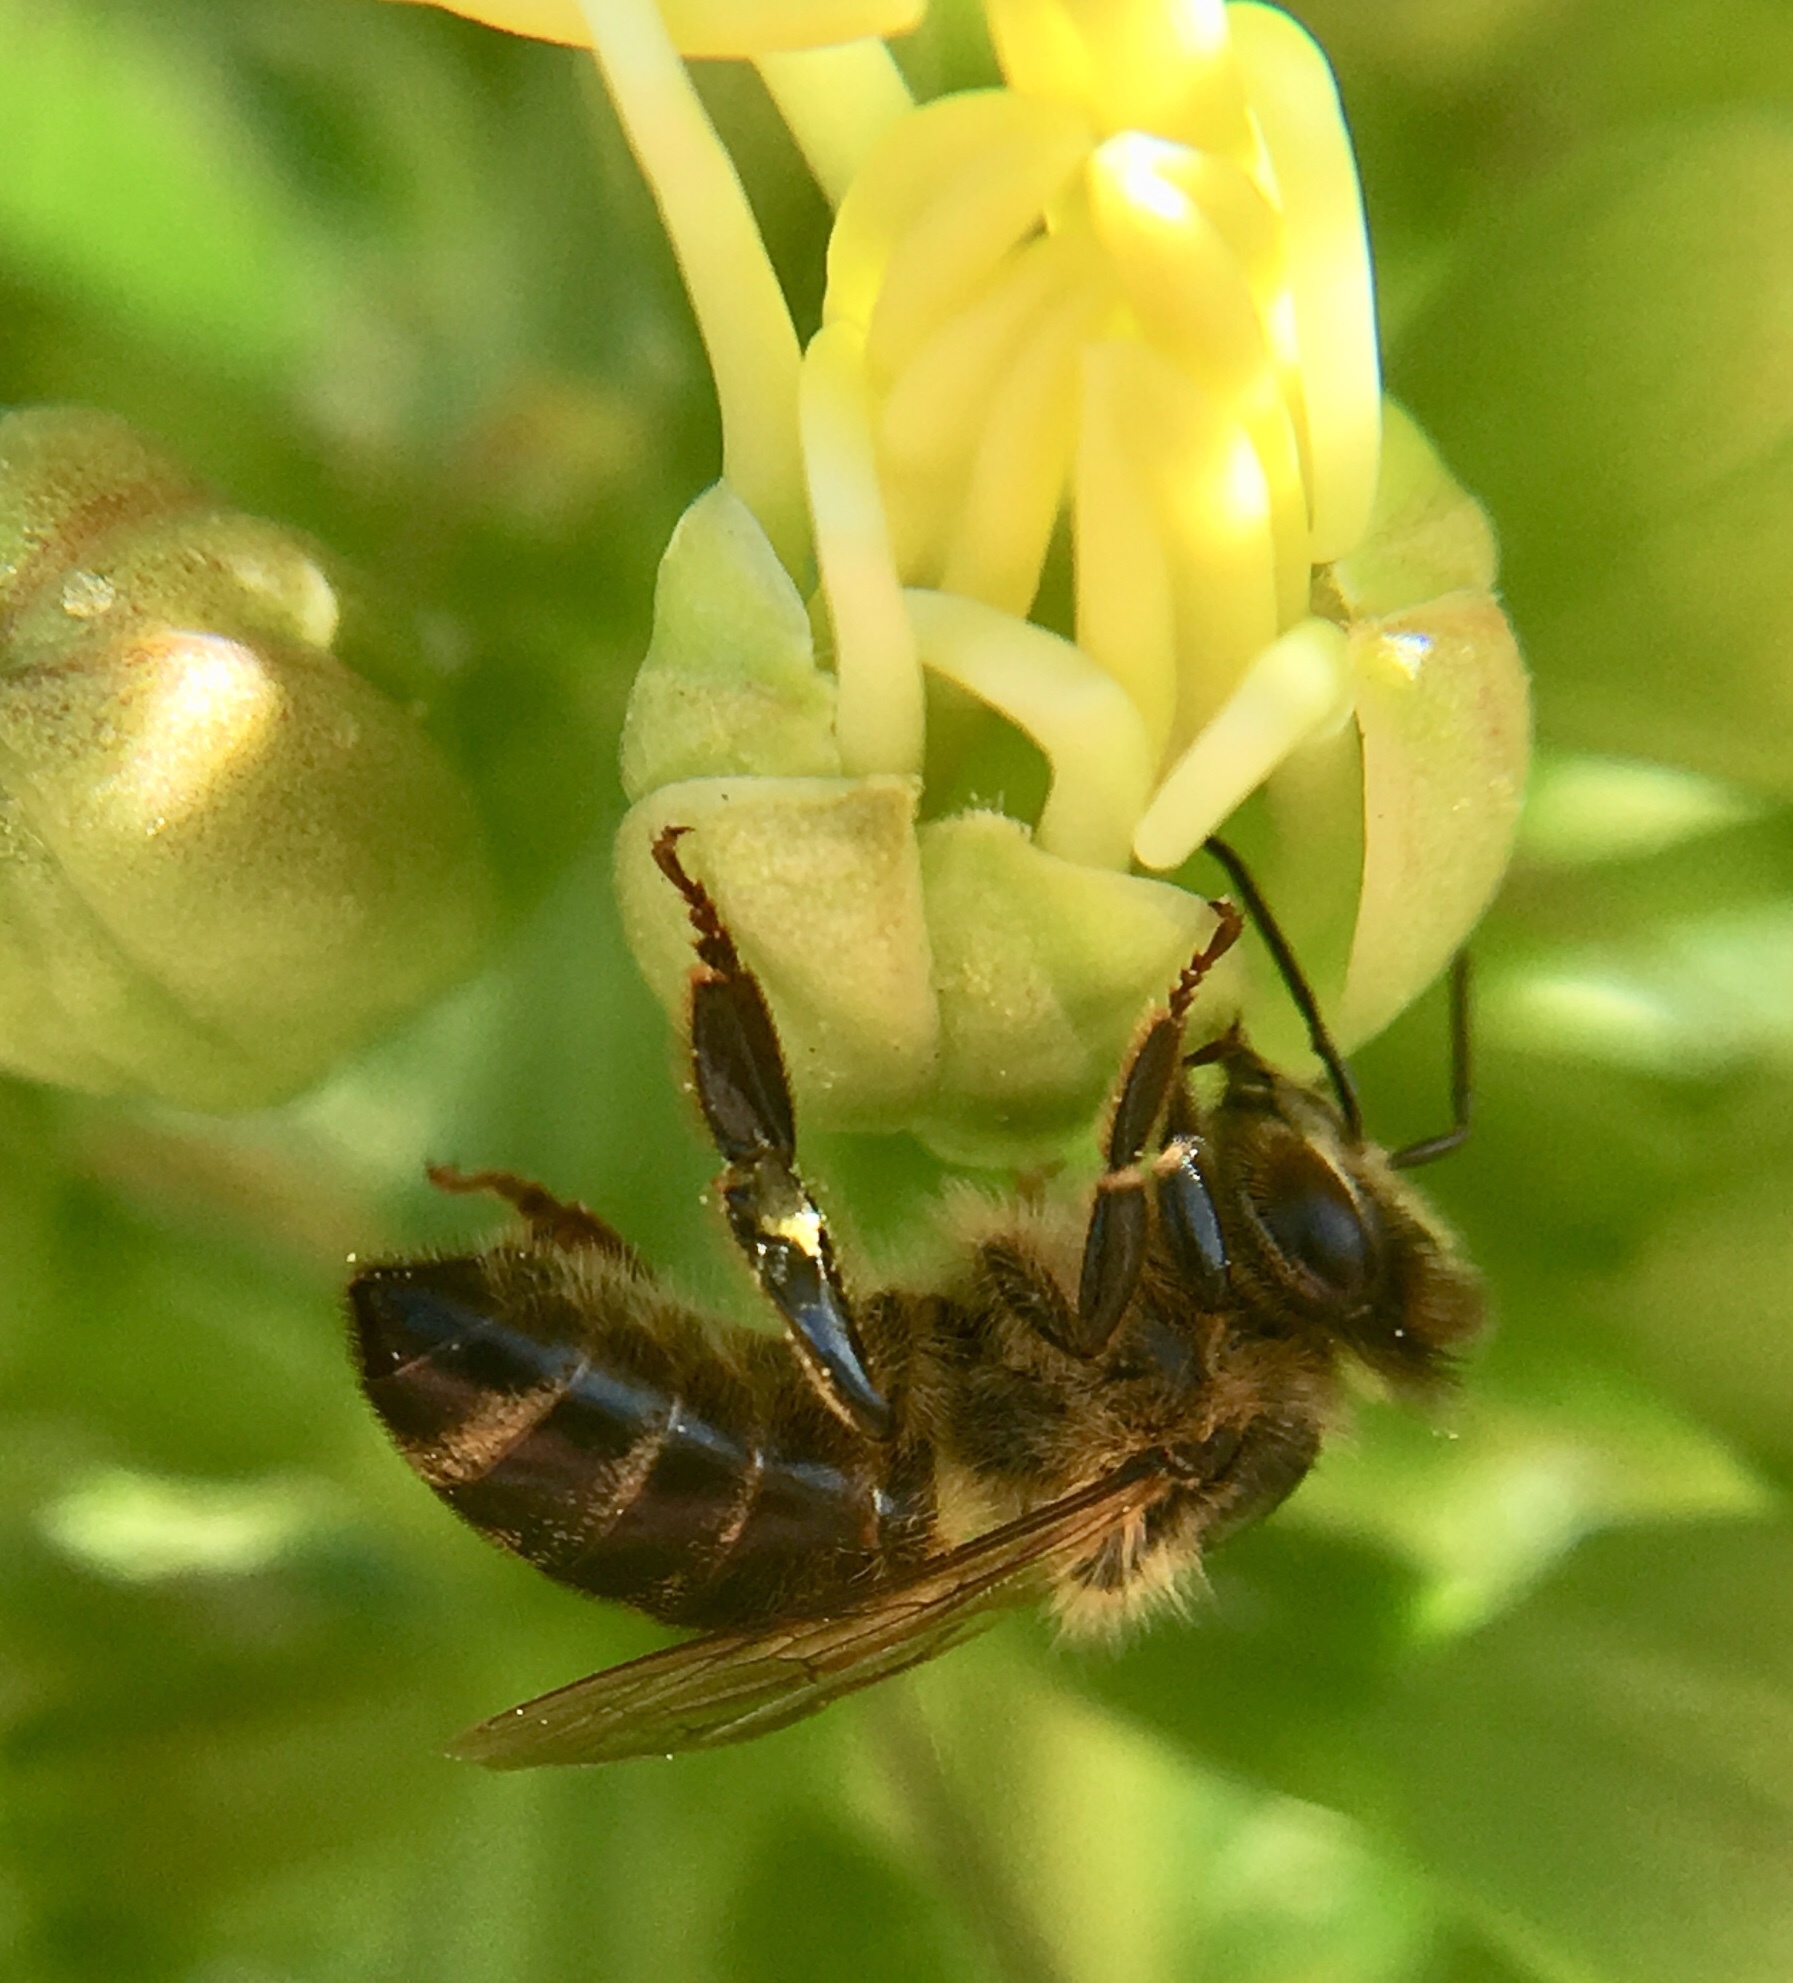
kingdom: Animalia
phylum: Arthropoda
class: Insecta
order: Hymenoptera
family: Apidae
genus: Apis
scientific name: Apis mellifera
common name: Honey bee
